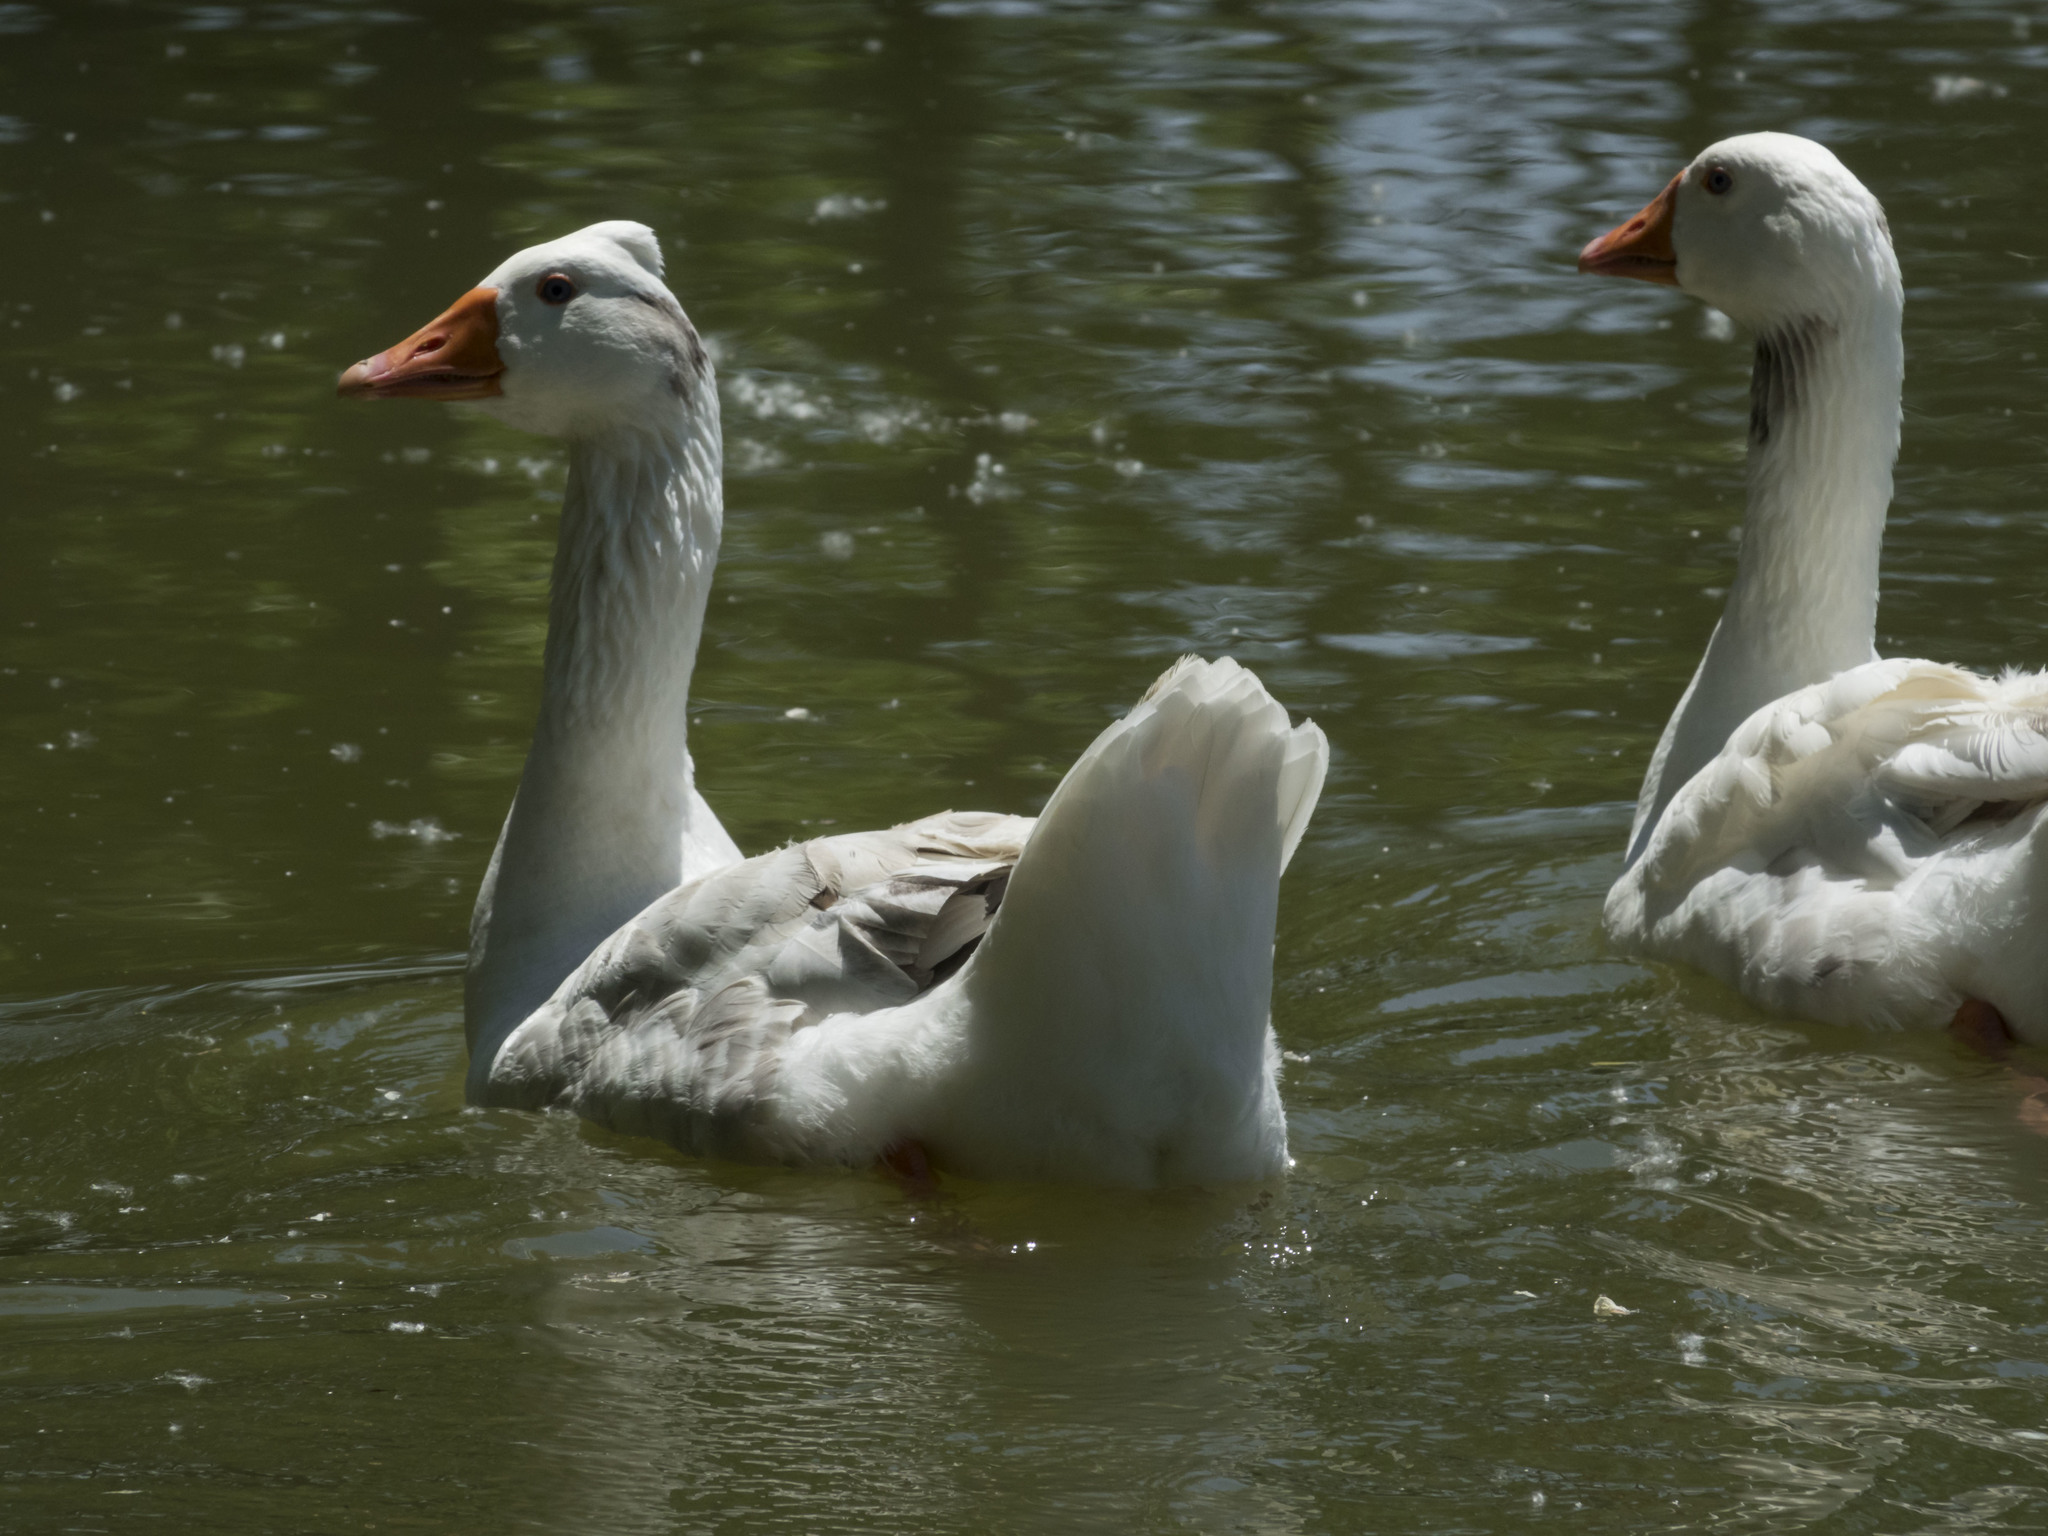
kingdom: Animalia
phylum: Chordata
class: Aves
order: Anseriformes
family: Anatidae
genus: Anser
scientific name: Anser anser
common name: Greylag goose
